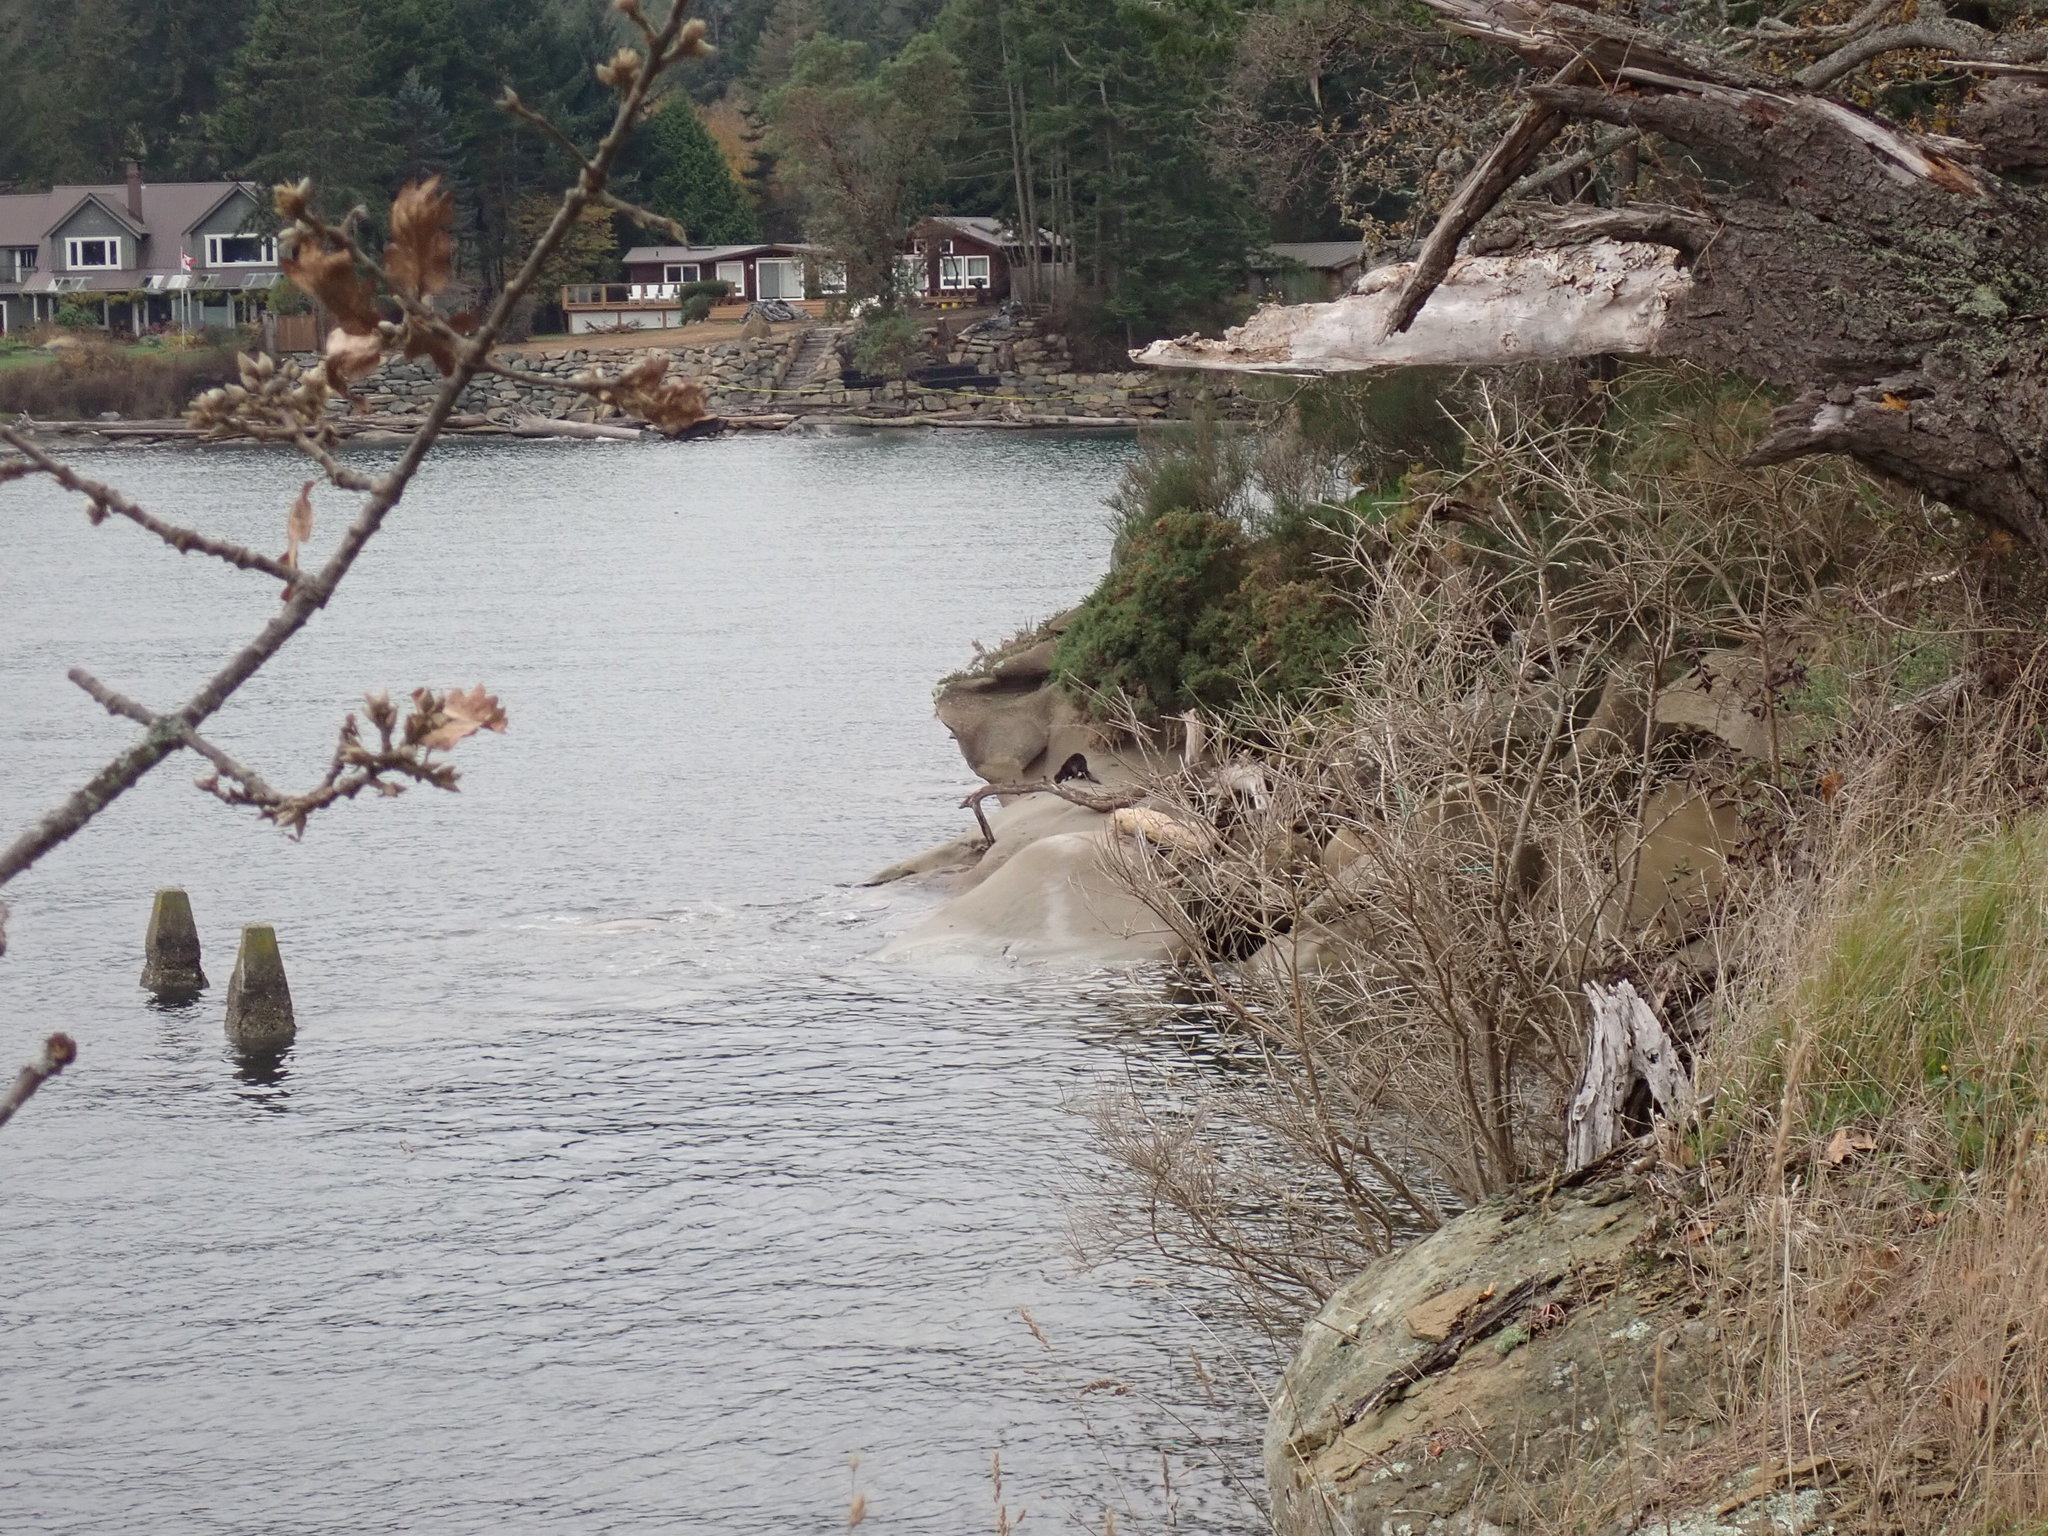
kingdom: Animalia
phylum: Chordata
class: Mammalia
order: Carnivora
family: Mustelidae
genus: Lontra
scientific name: Lontra canadensis
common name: North american river otter
